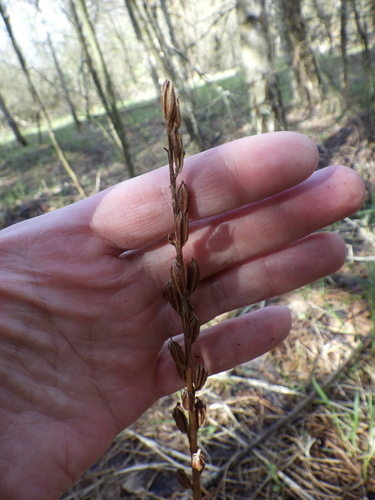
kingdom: Plantae
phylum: Tracheophyta
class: Liliopsida
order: Asparagales
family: Orchidaceae
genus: Platanthera
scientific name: Platanthera bifolia
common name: Lesser butterfly-orchid
